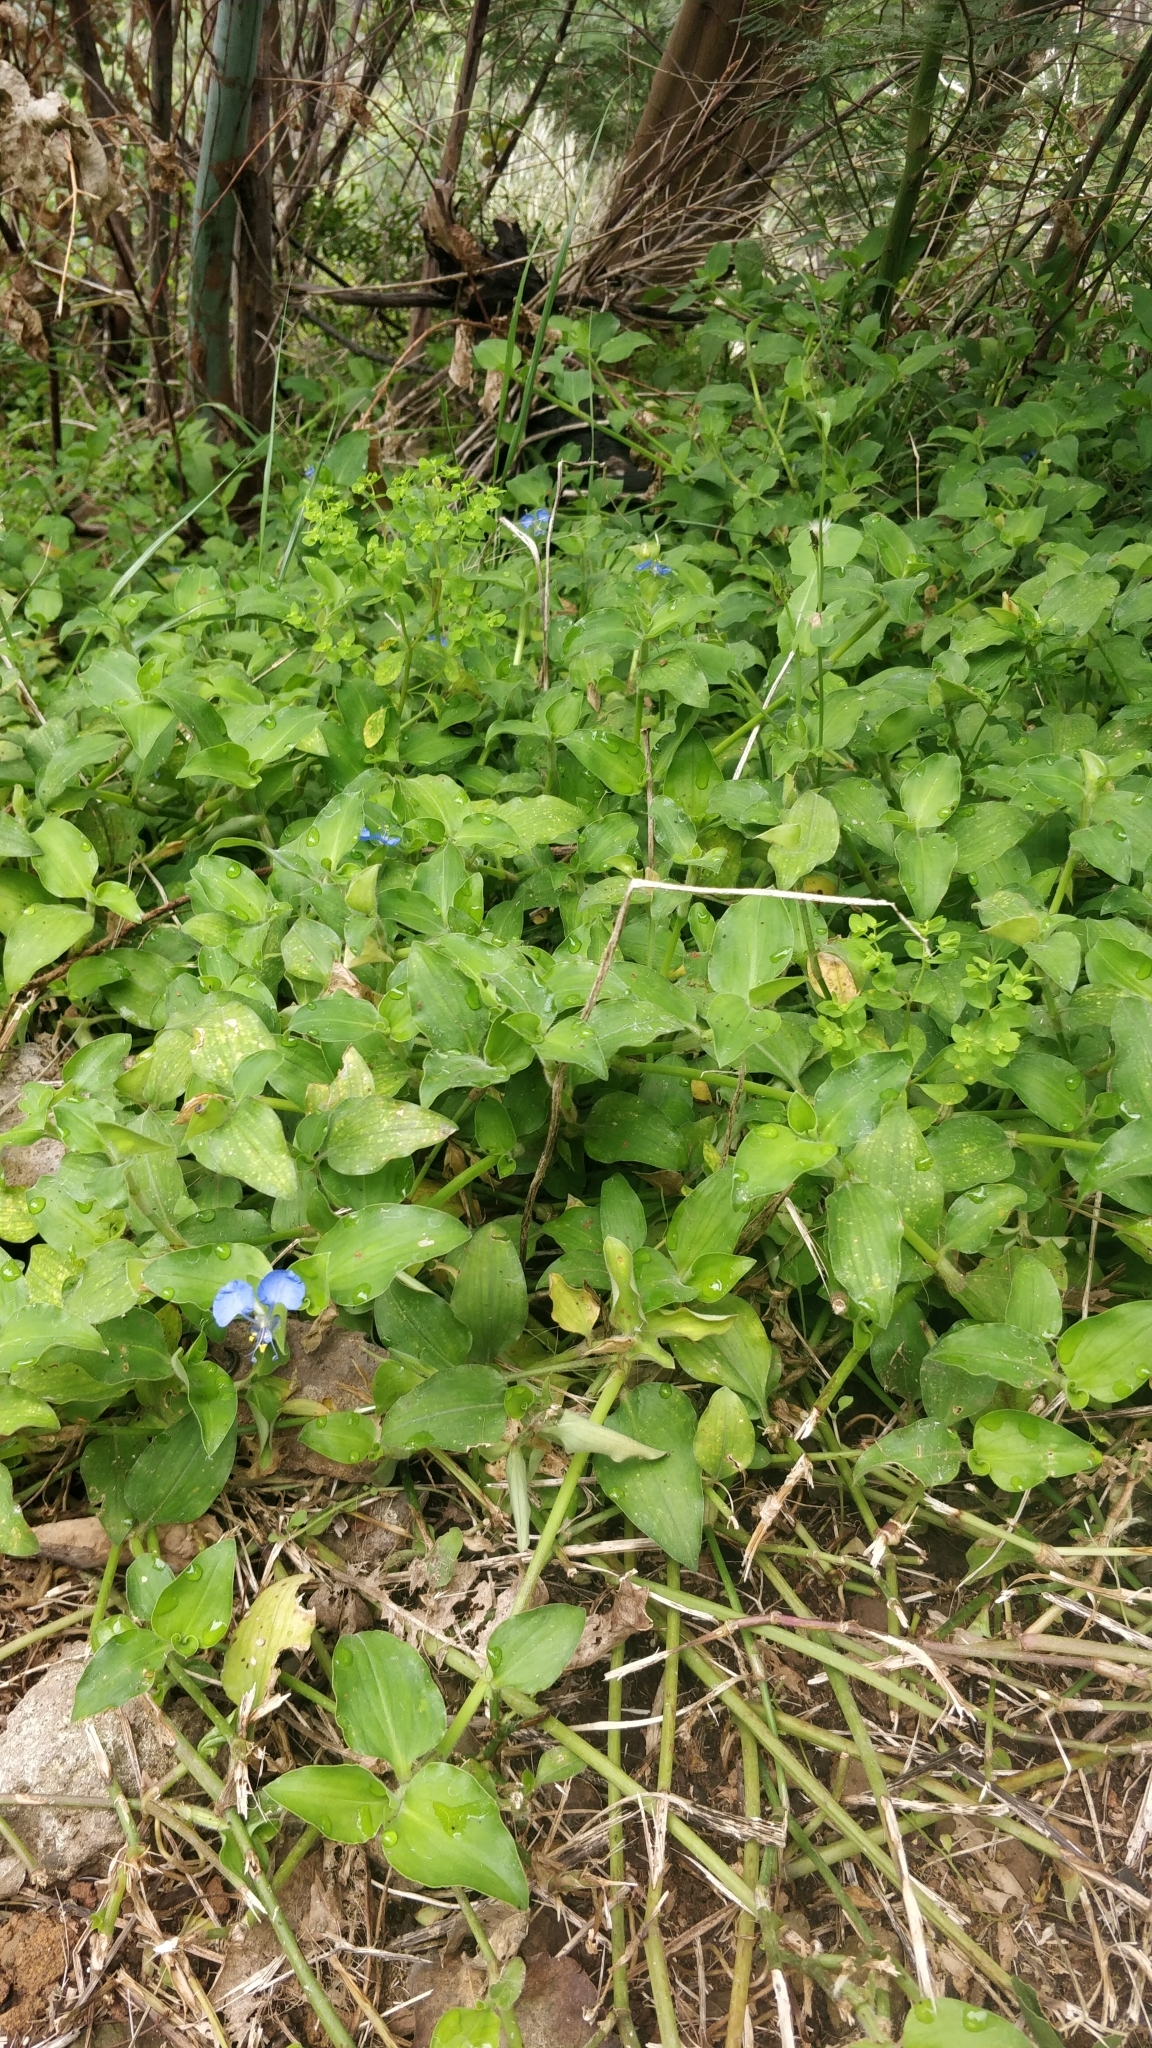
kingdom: Plantae
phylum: Tracheophyta
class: Liliopsida
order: Commelinales
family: Commelinaceae
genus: Commelina
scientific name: Commelina benghalensis
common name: Jio
